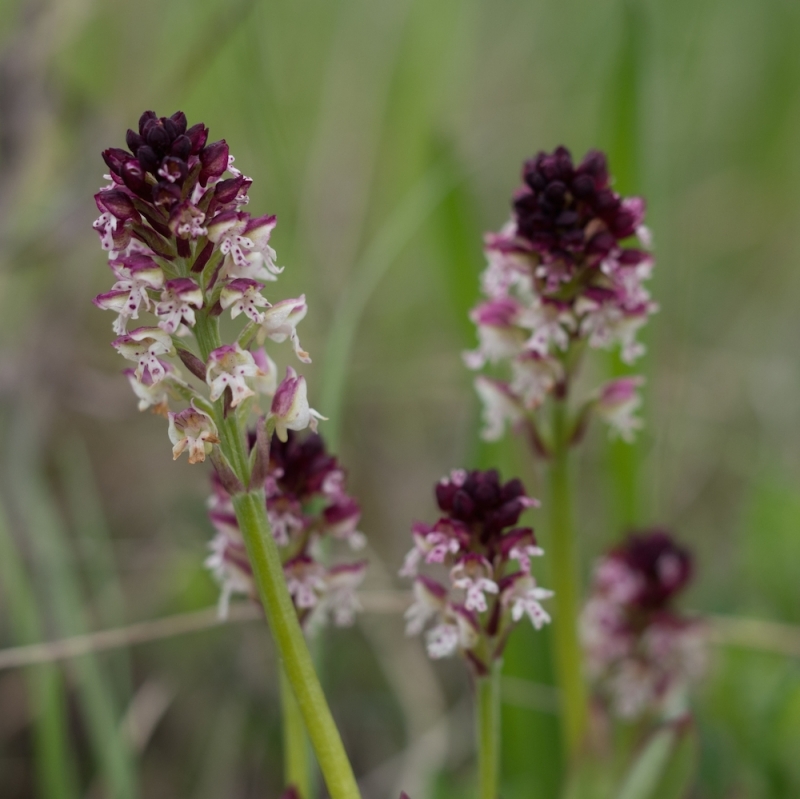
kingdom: Plantae
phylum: Tracheophyta
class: Liliopsida
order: Asparagales
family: Orchidaceae
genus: Neotinea
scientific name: Neotinea ustulata
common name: Burnt orchid
